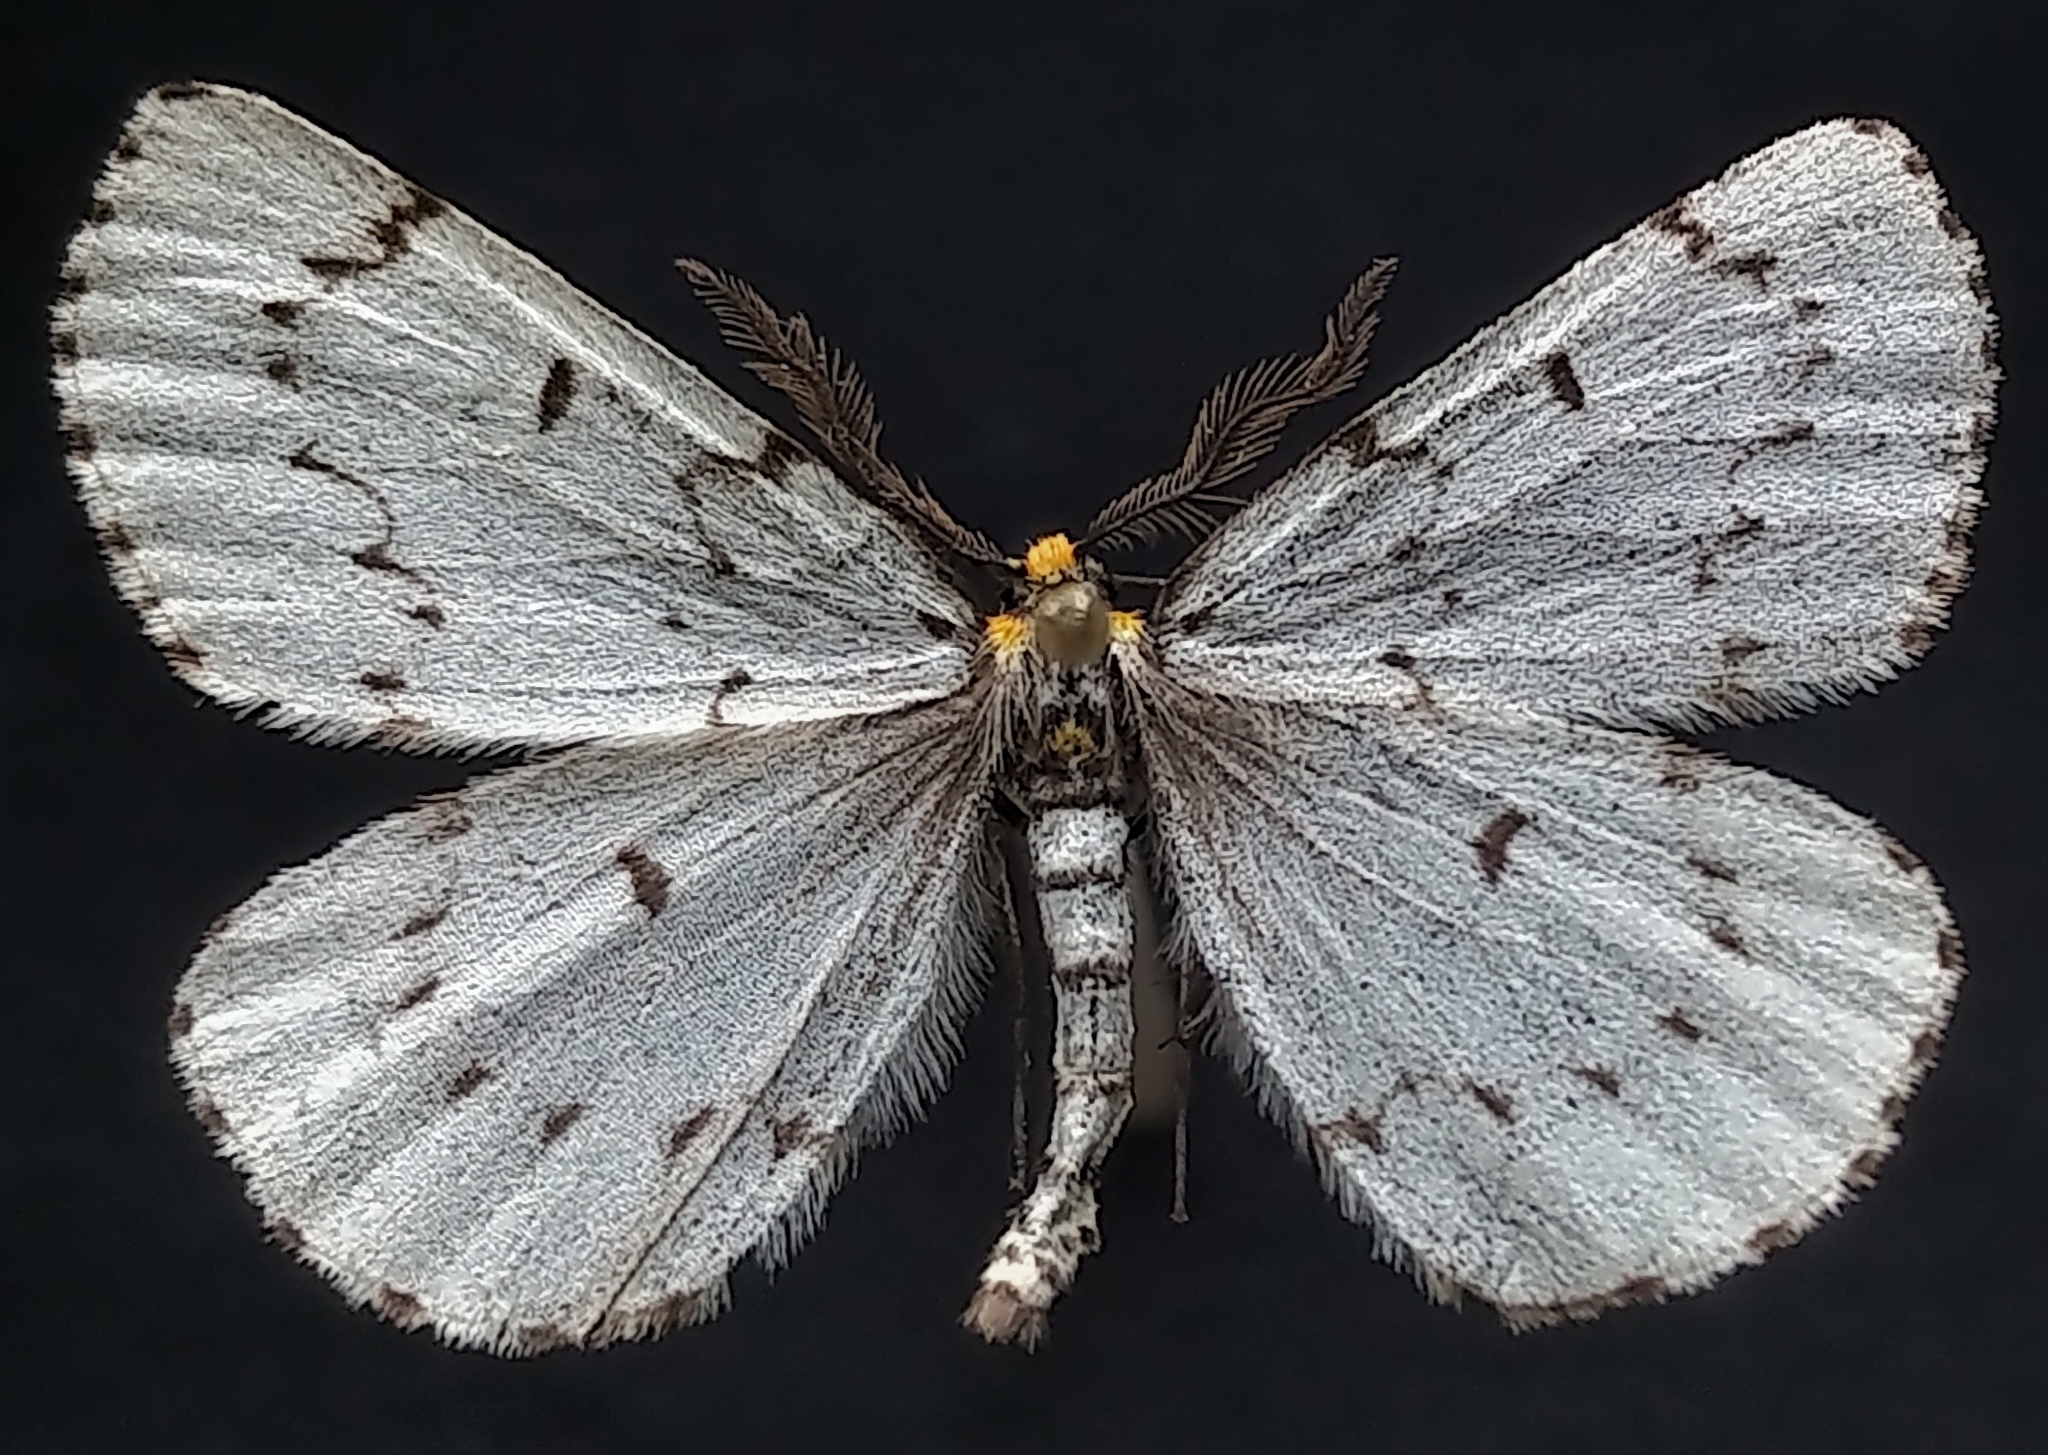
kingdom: Animalia
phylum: Arthropoda
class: Insecta
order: Lepidoptera
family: Geometridae
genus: Cingilia
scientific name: Cingilia catenaria
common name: Chain-dotted geometer
